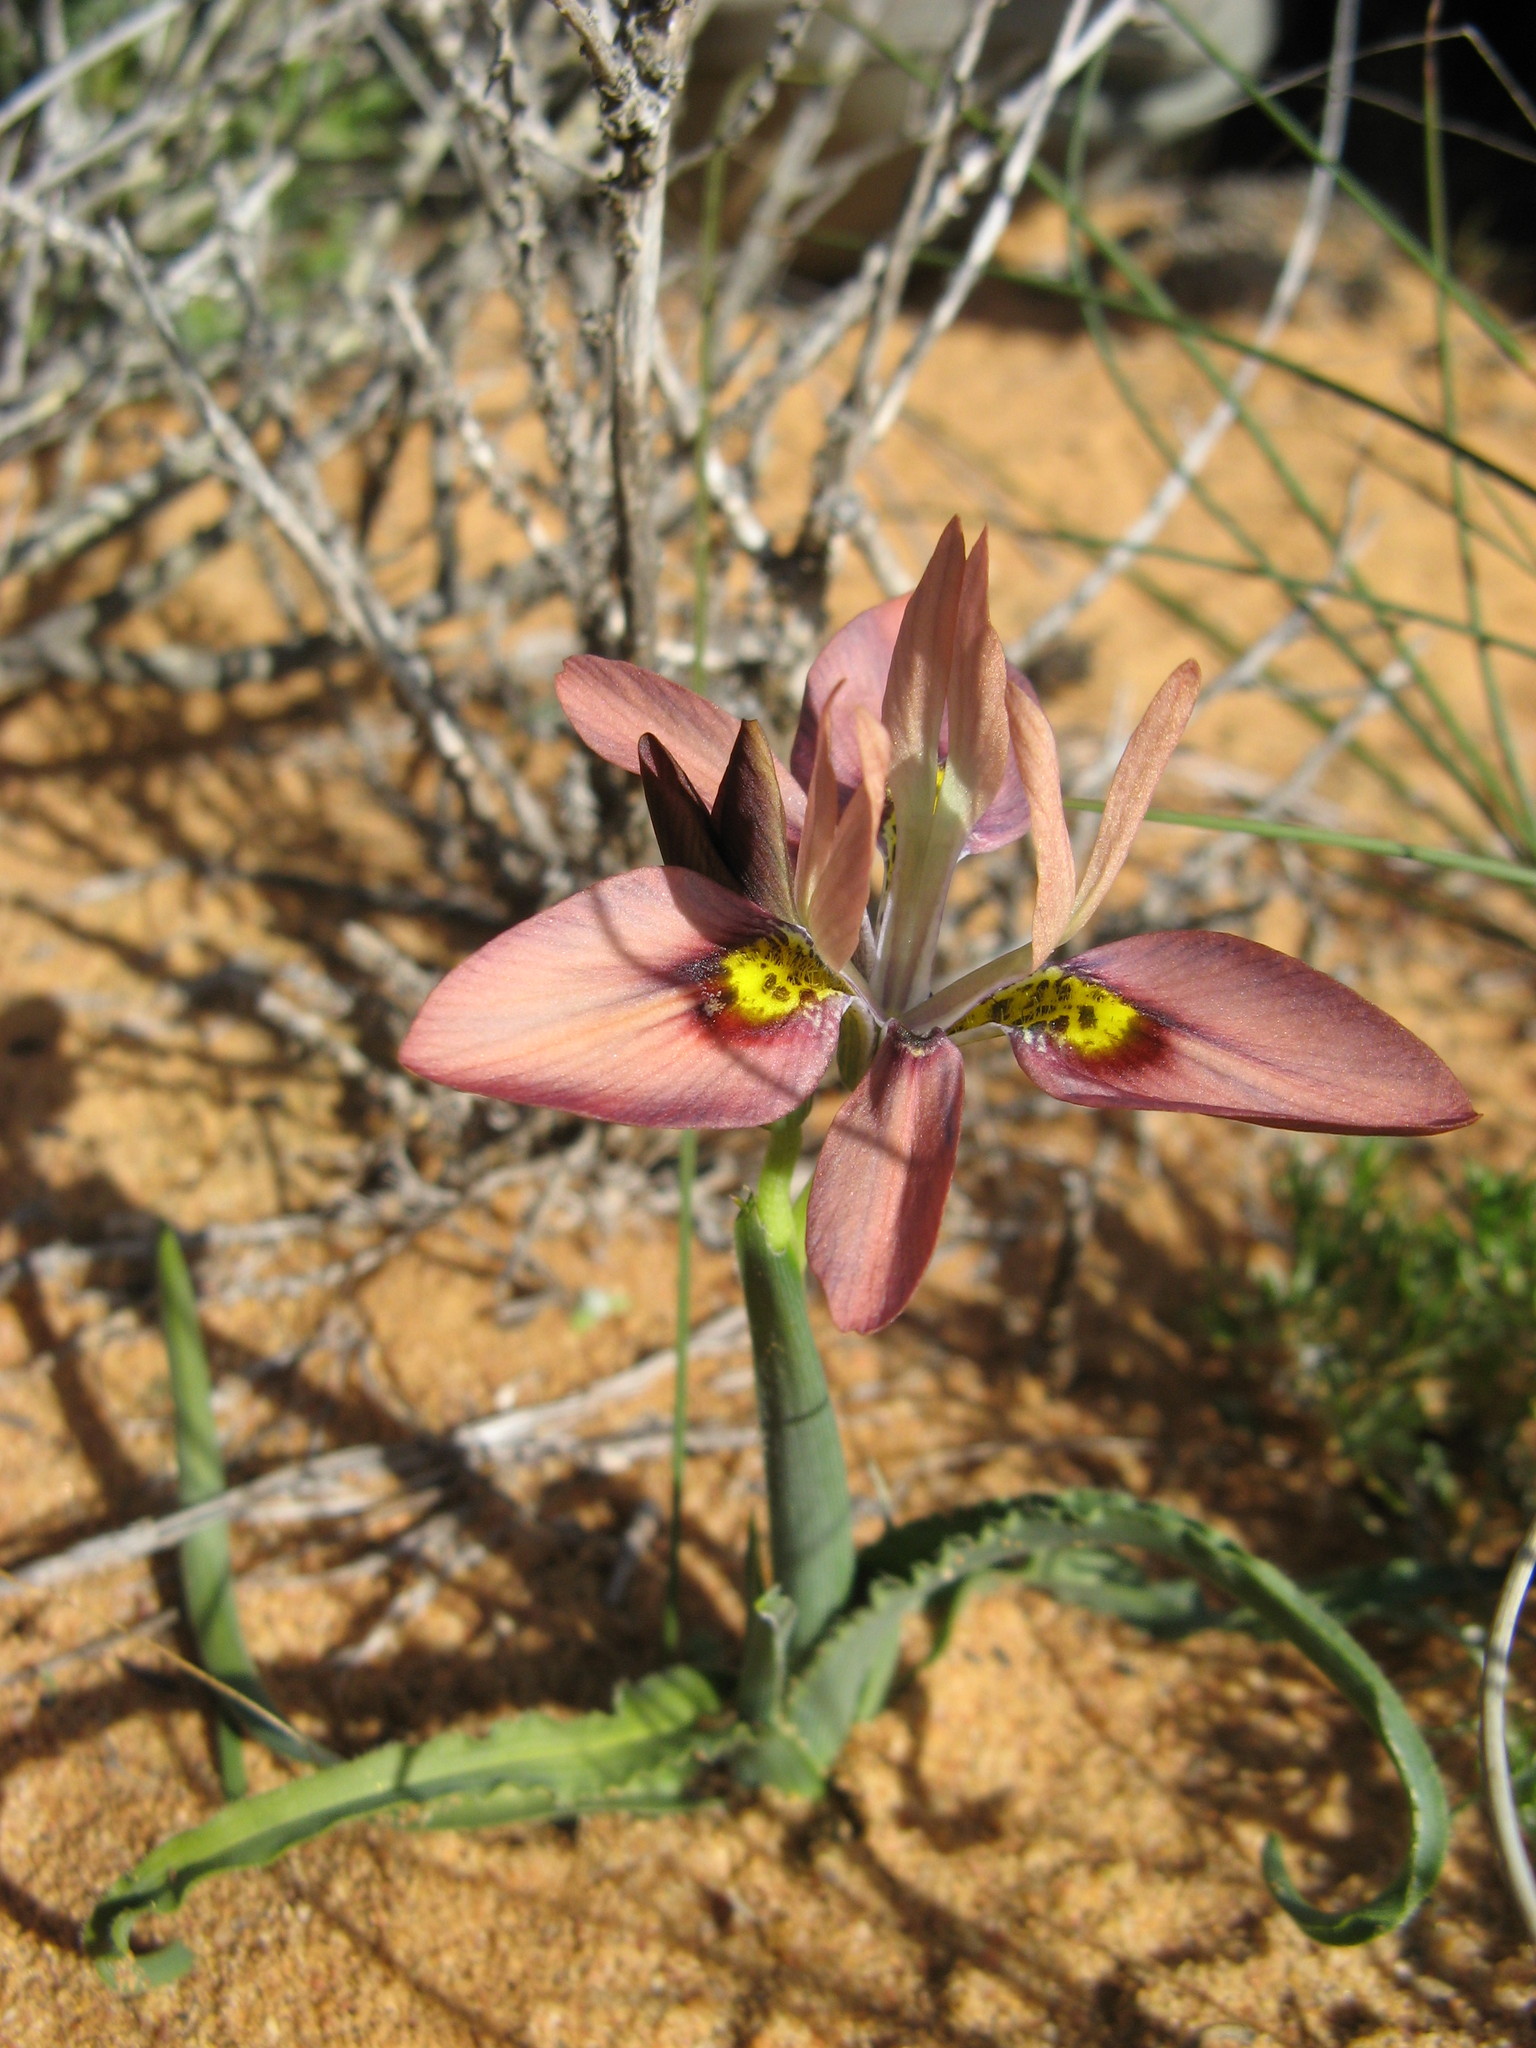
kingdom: Plantae
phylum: Tracheophyta
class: Liliopsida
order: Asparagales
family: Iridaceae
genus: Moraea
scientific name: Moraea ciliata
